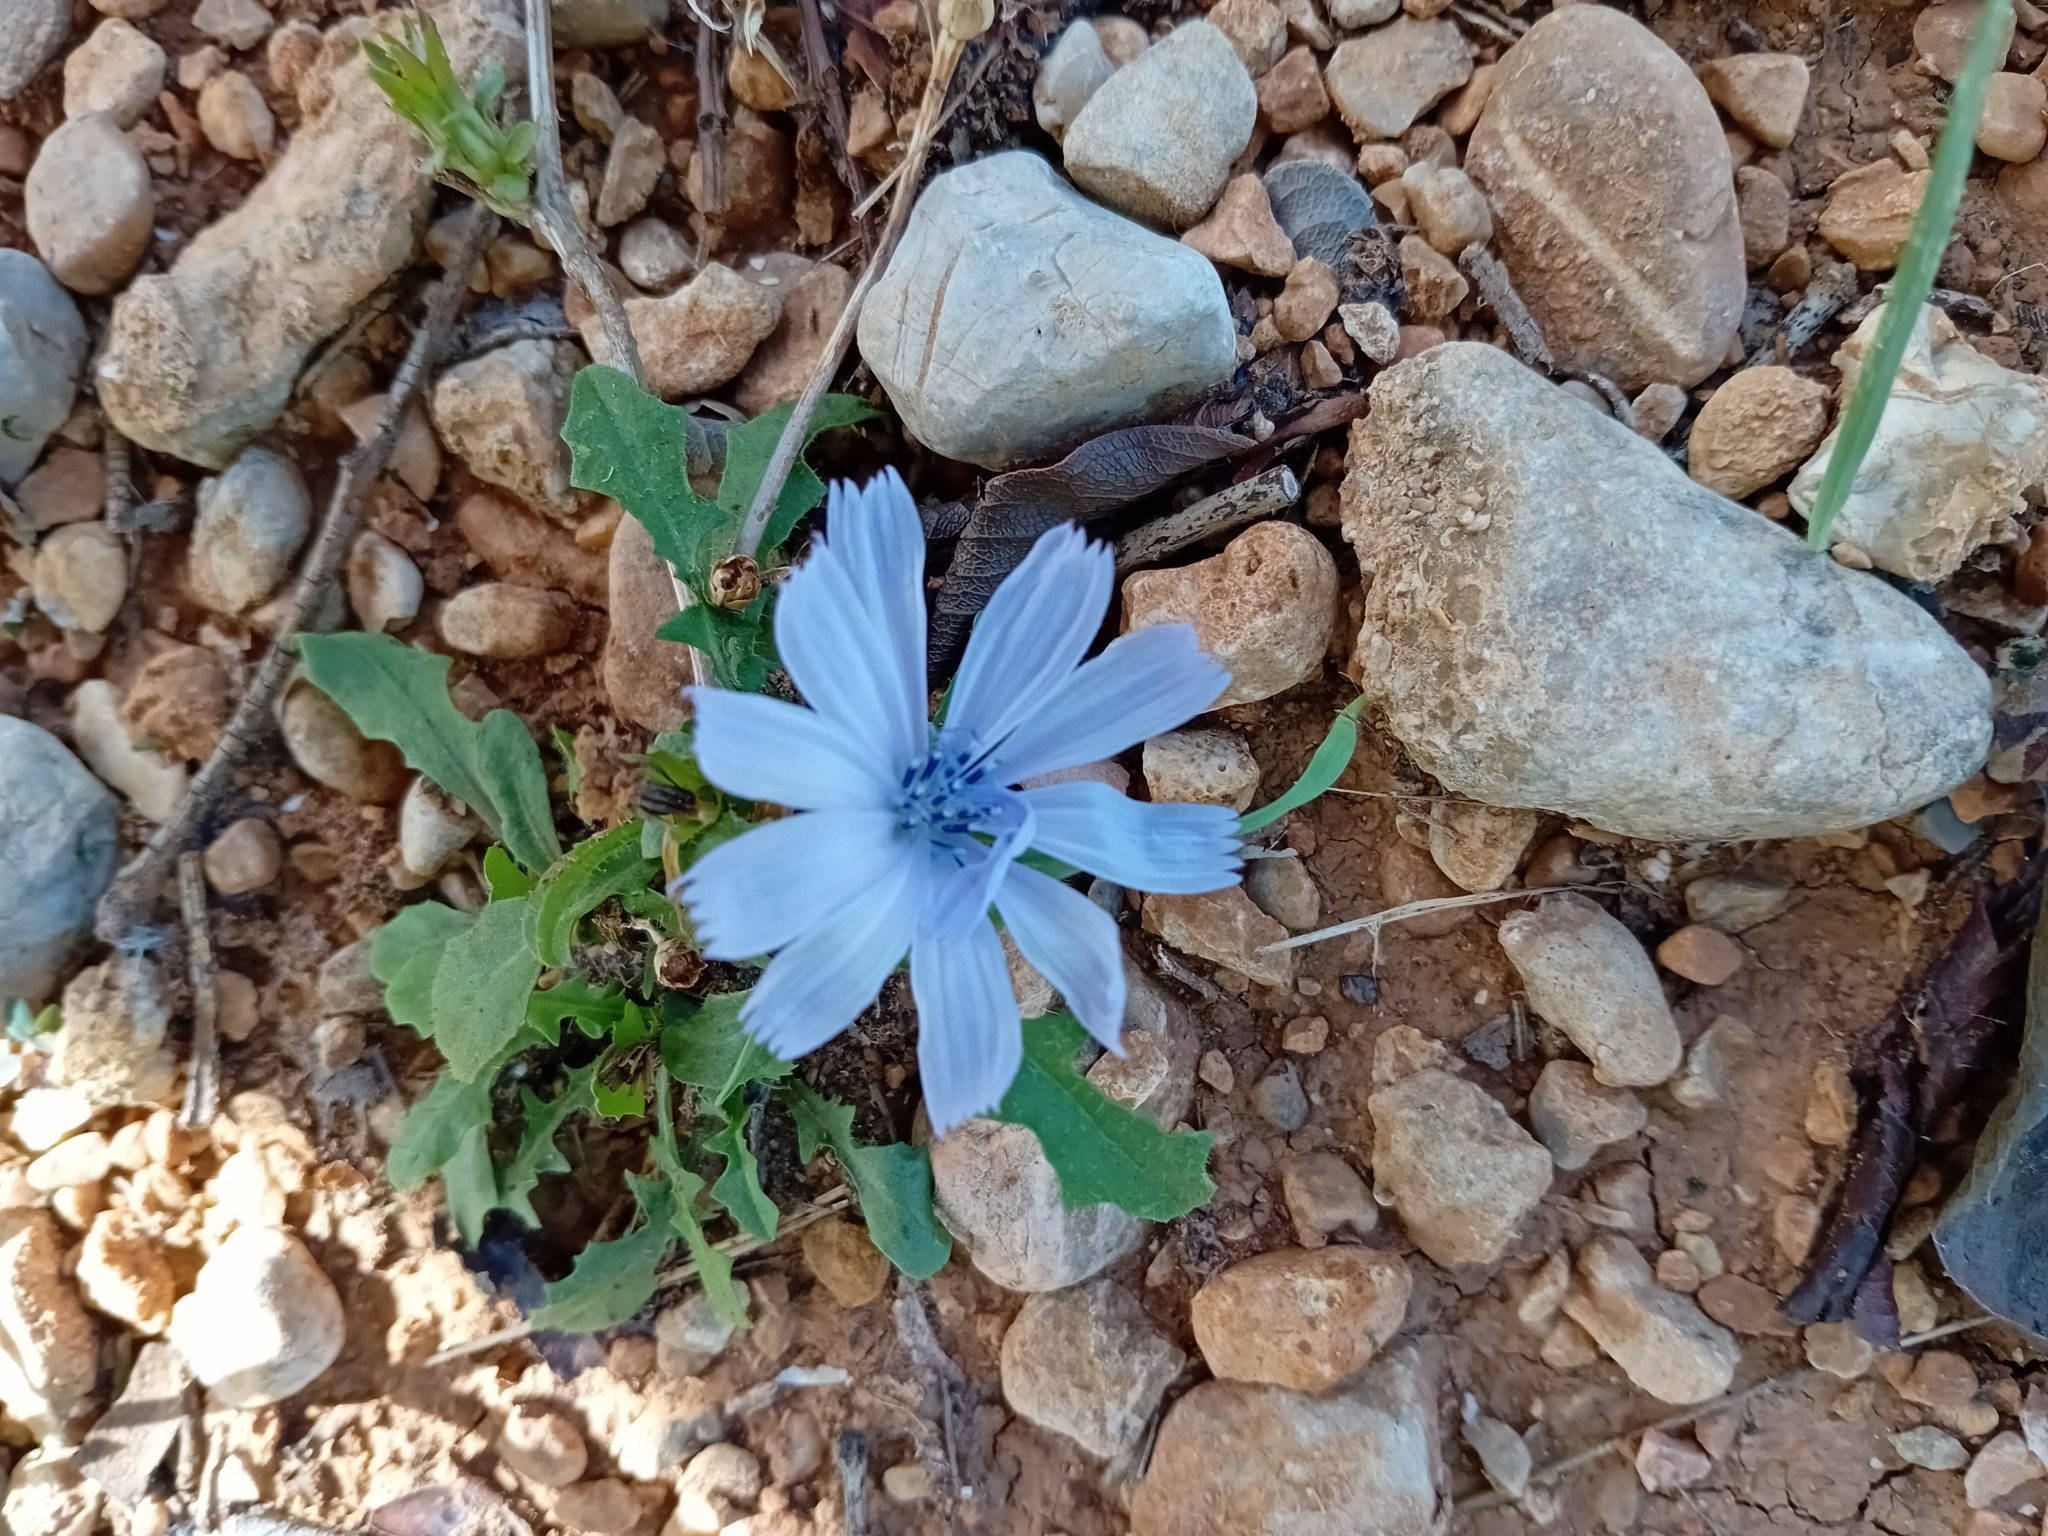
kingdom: Plantae
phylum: Tracheophyta
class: Magnoliopsida
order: Asterales
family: Asteraceae
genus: Cichorium
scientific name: Cichorium intybus
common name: Chicory
